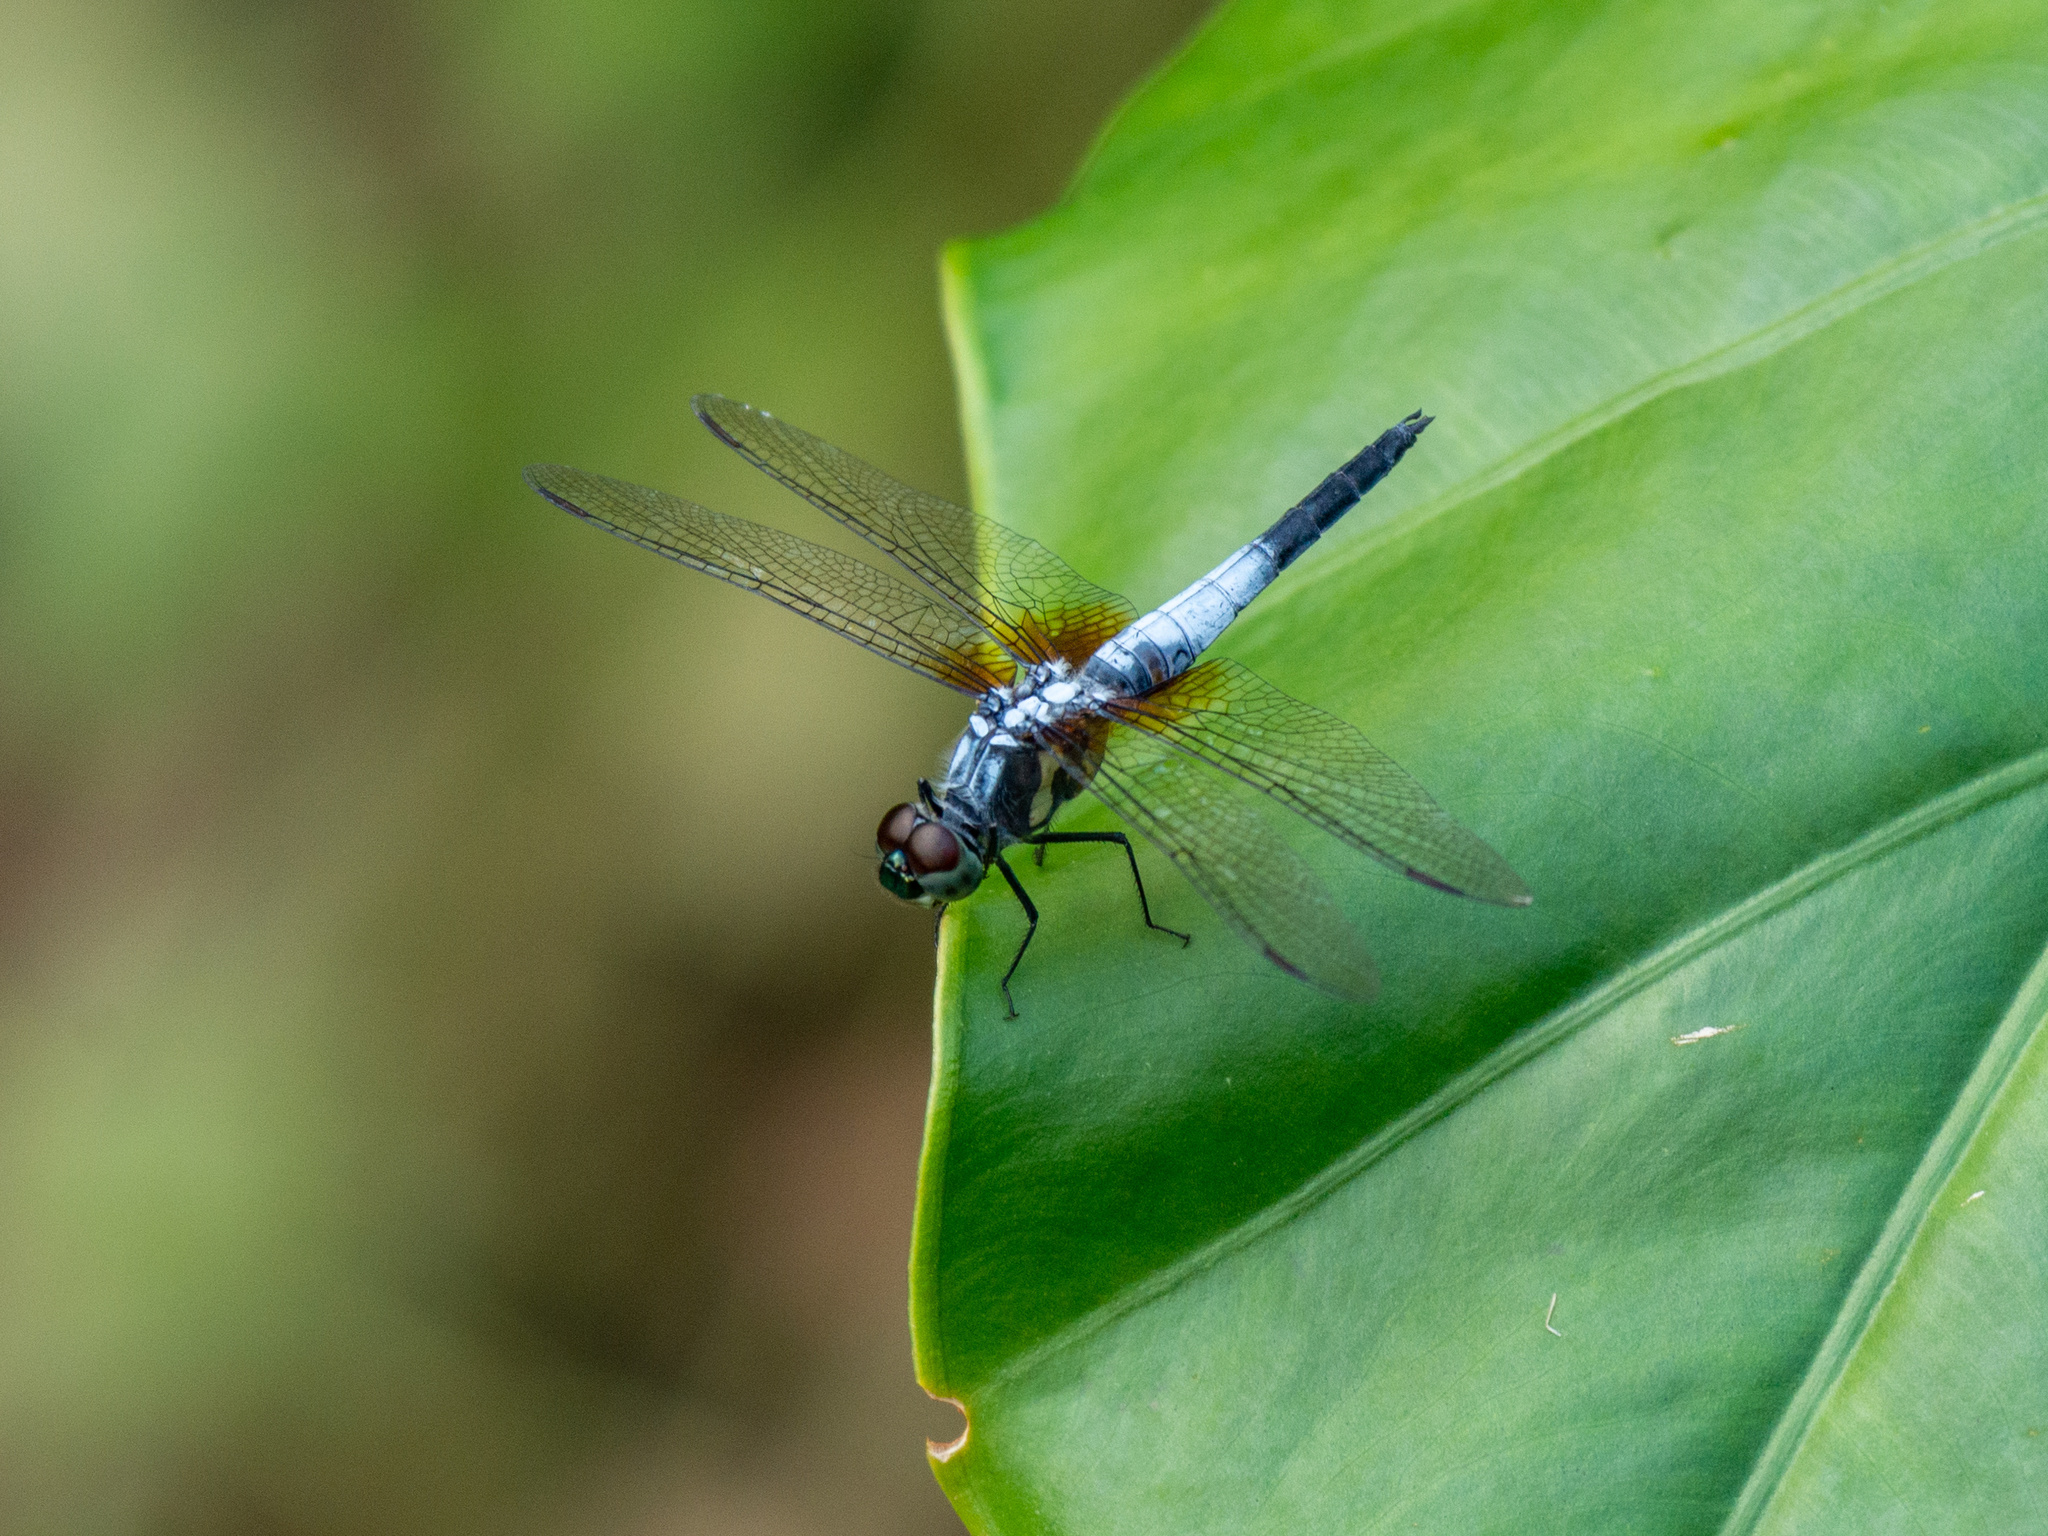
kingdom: Animalia
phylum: Arthropoda
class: Insecta
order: Odonata
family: Libellulidae
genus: Brachydiplax
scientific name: Brachydiplax chalybea
